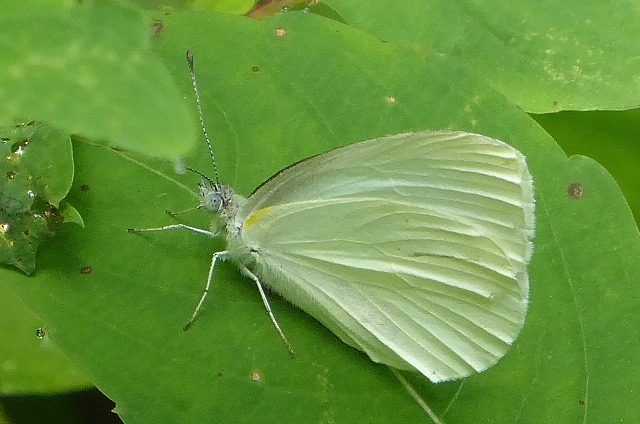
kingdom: Animalia
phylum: Arthropoda
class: Insecta
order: Lepidoptera
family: Pieridae
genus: Pieris
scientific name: Pieris oleracea
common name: Mustard white
